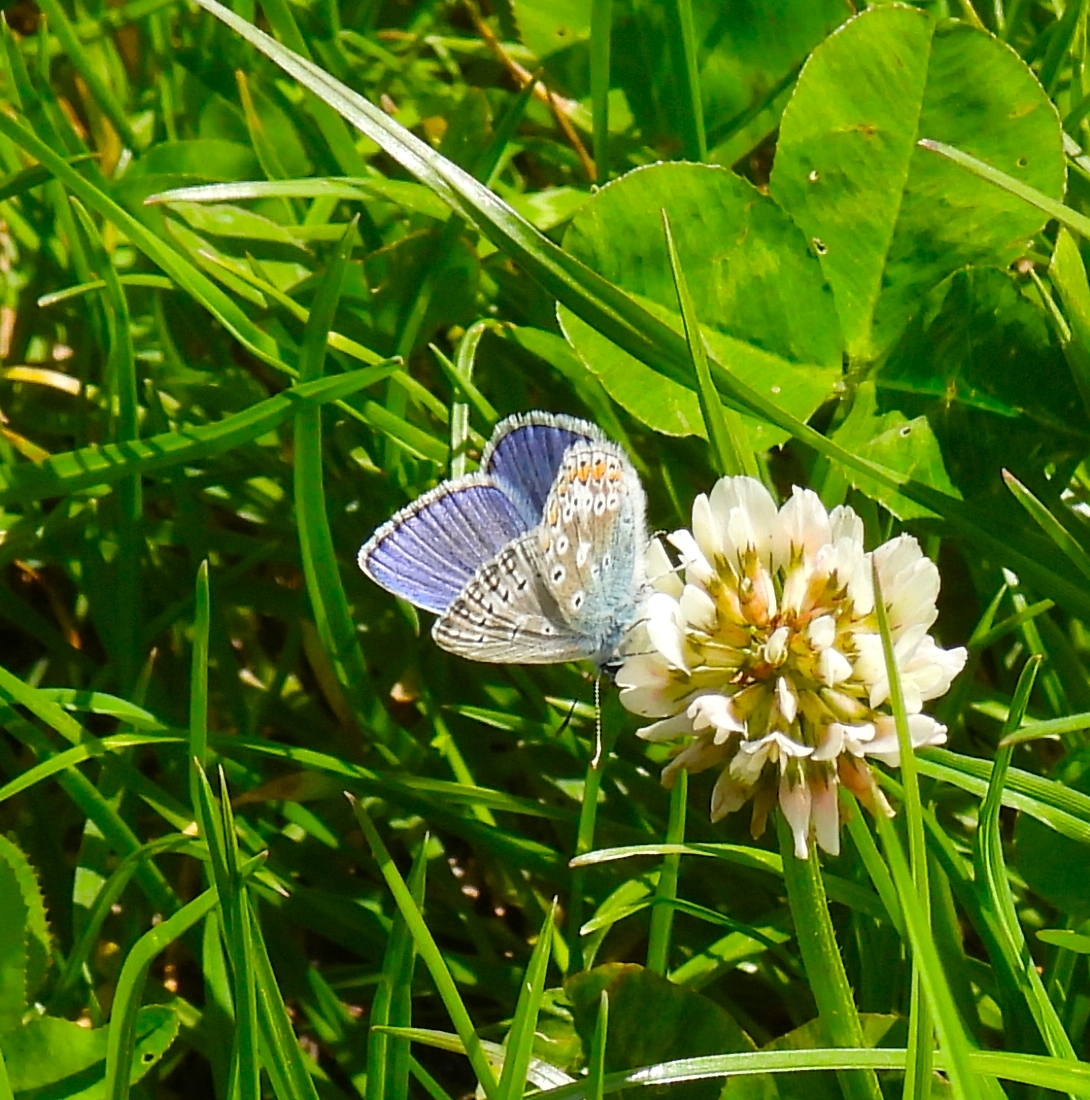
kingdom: Animalia
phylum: Arthropoda
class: Insecta
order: Lepidoptera
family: Lycaenidae
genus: Polyommatus
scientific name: Polyommatus icarus
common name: Common blue
